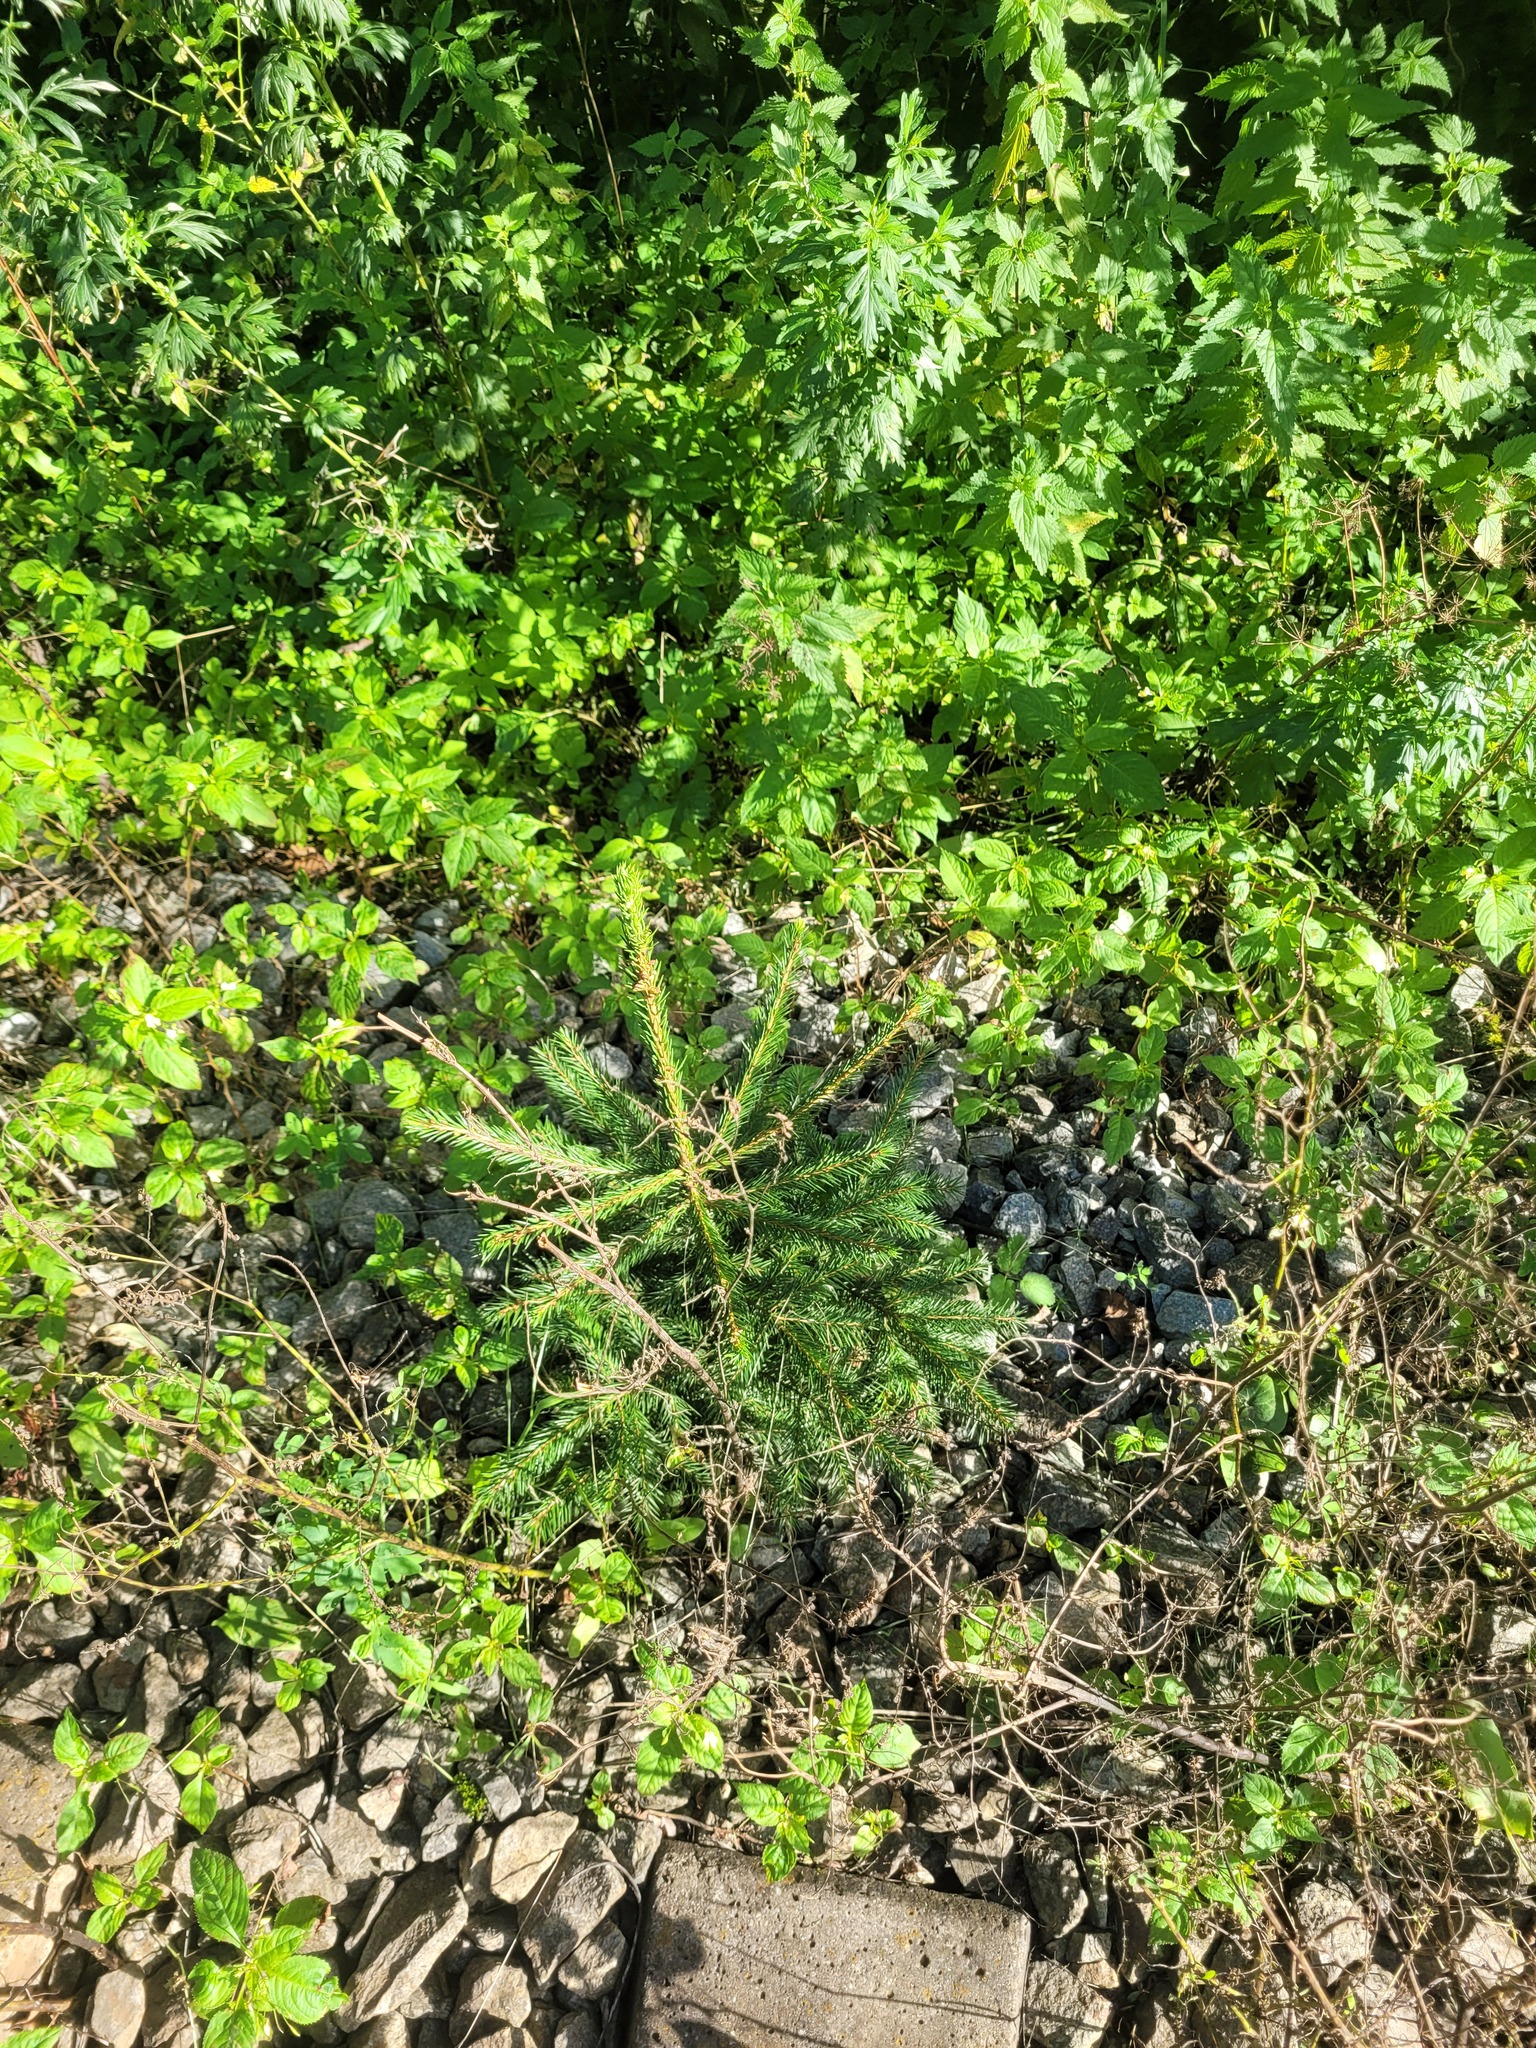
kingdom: Plantae
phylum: Tracheophyta
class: Pinopsida
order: Pinales
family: Pinaceae
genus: Picea
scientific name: Picea abies
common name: Norway spruce
